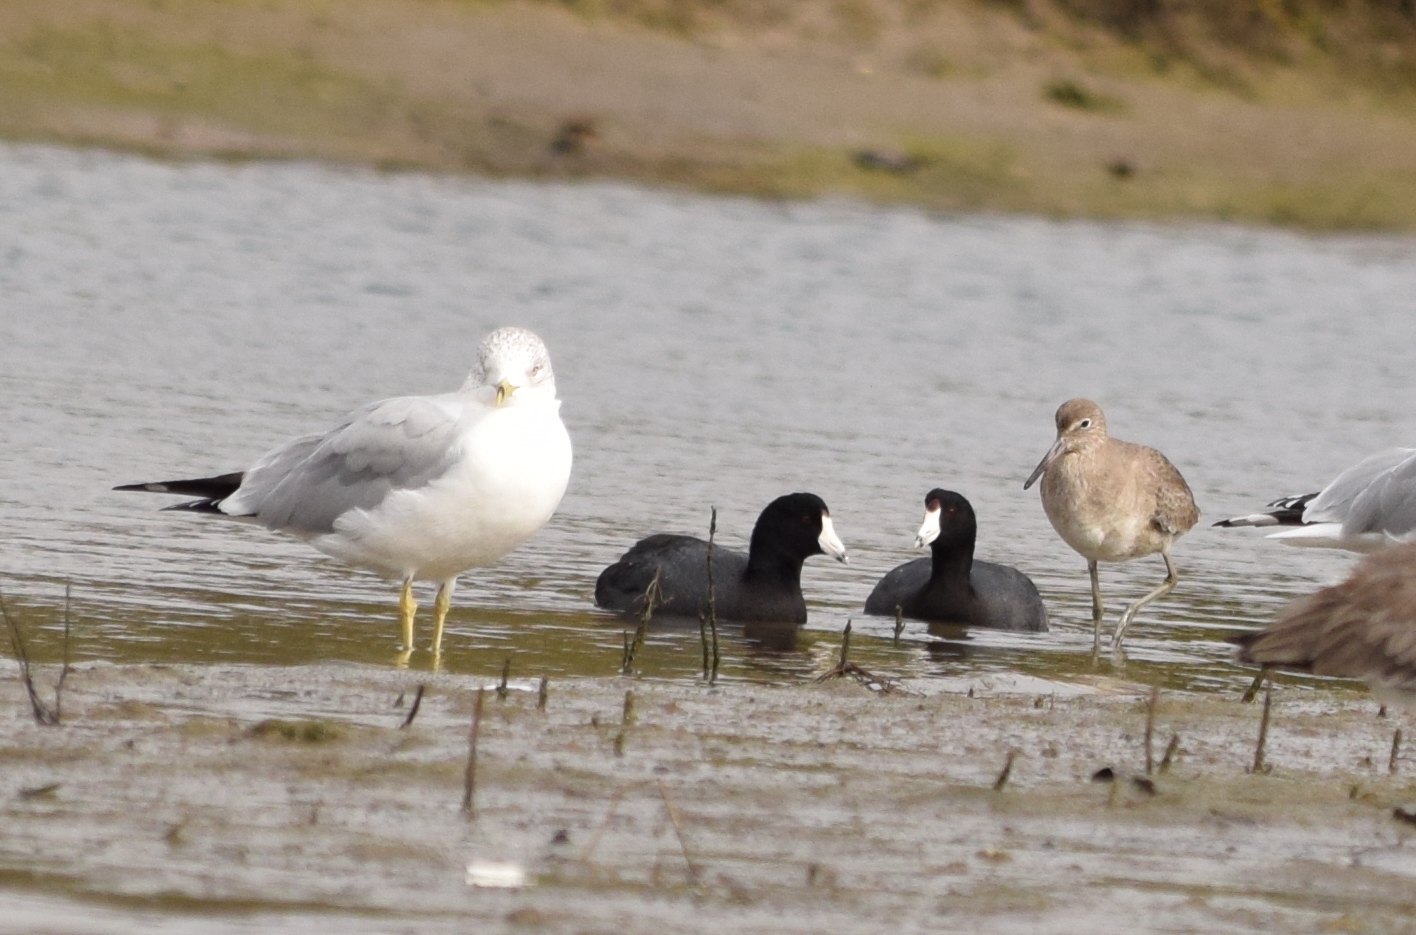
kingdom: Animalia
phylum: Chordata
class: Aves
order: Gruiformes
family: Rallidae
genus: Fulica
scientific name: Fulica americana
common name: American coot
